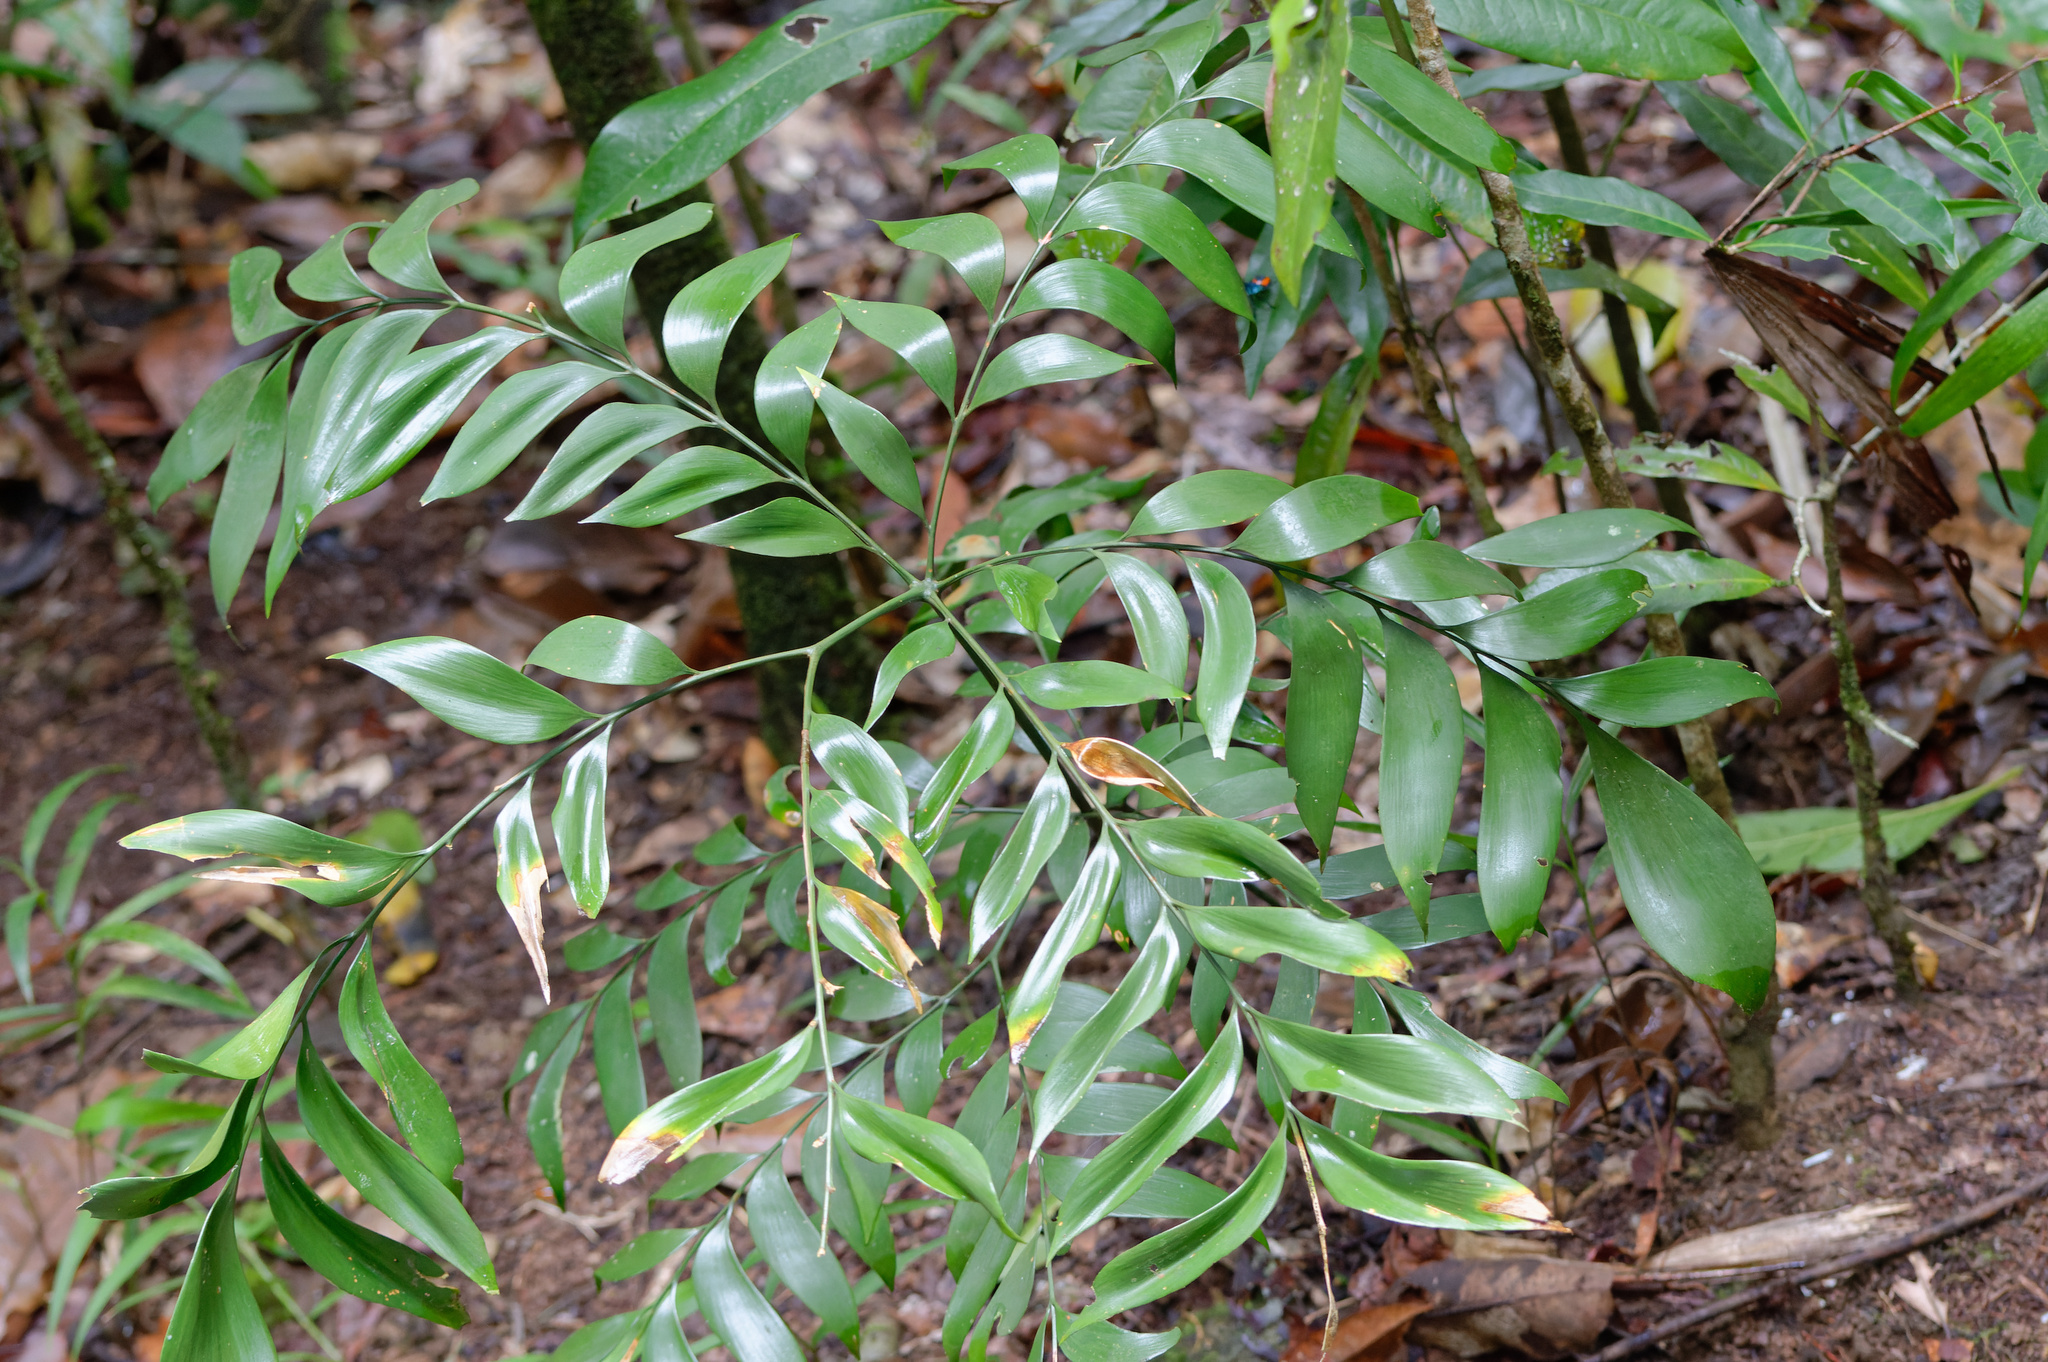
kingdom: Plantae
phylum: Tracheophyta
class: Cycadopsida
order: Cycadales
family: Zamiaceae
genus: Bowenia
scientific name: Bowenia spectabilis
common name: Zamia-fern
